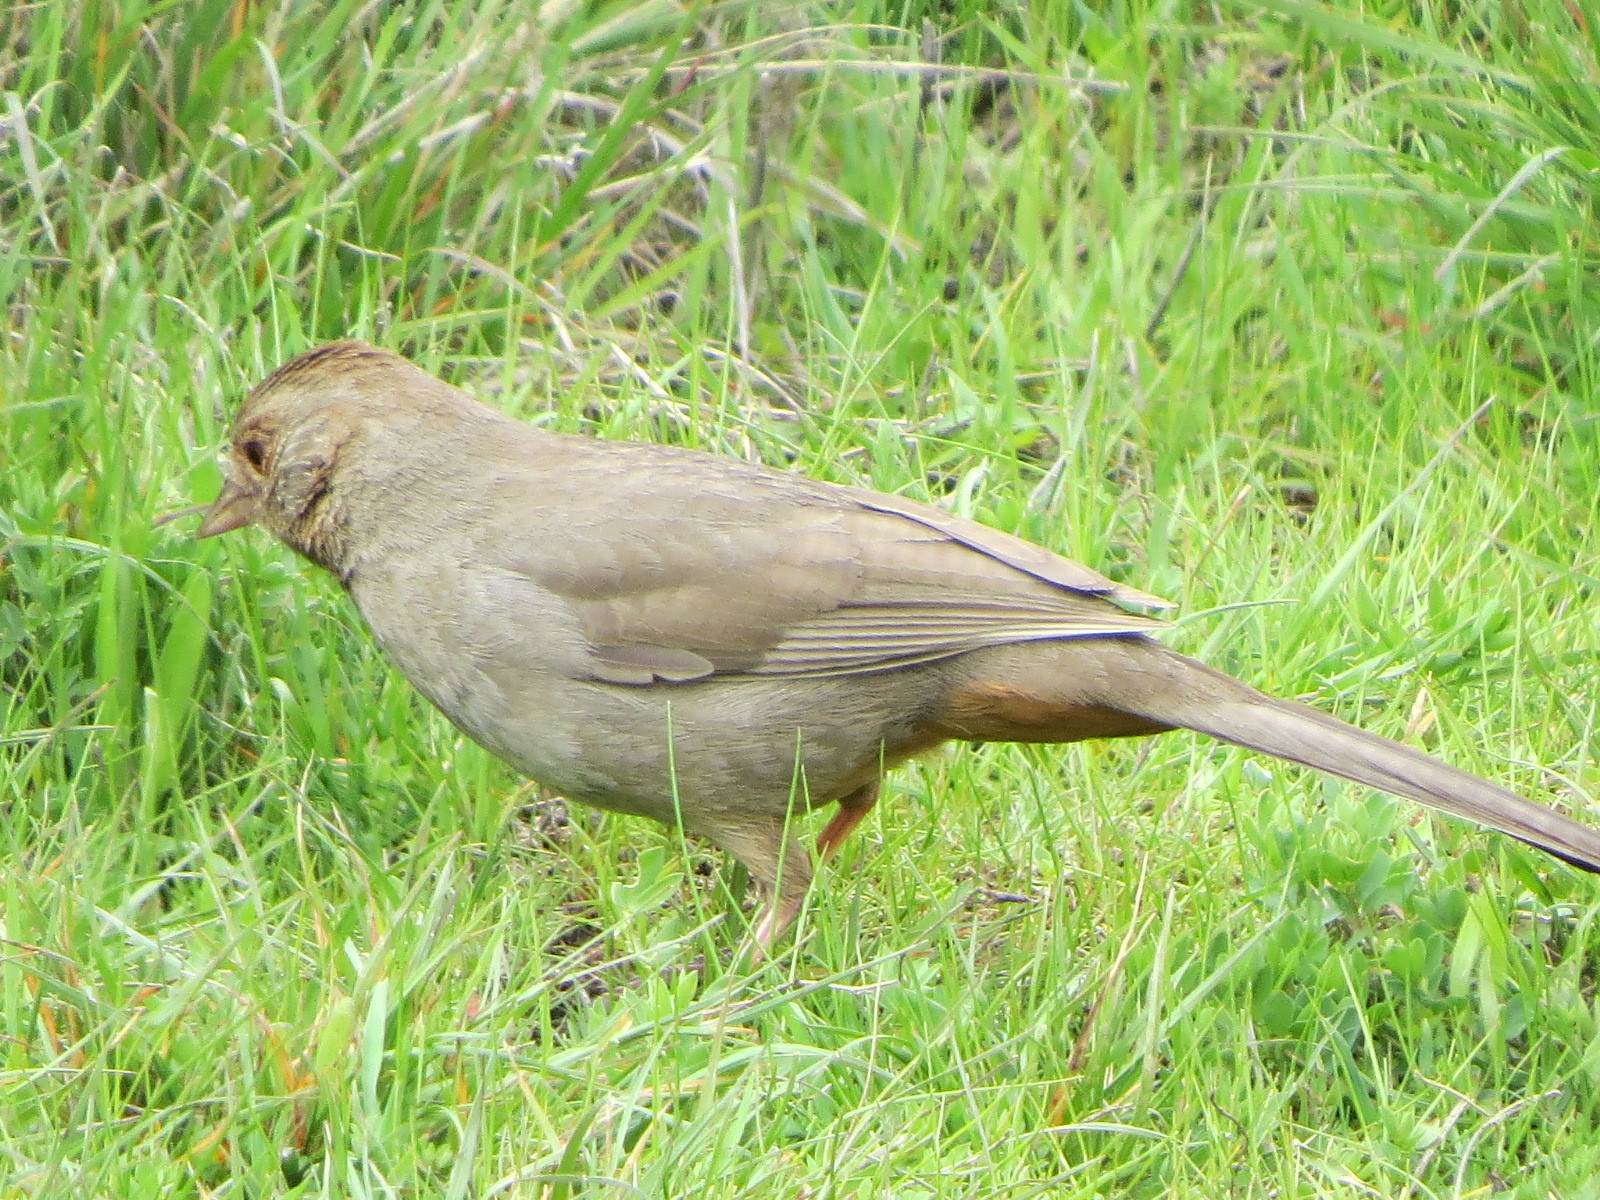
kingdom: Animalia
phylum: Chordata
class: Aves
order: Passeriformes
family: Passerellidae
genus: Melozone
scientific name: Melozone crissalis
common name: California towhee
